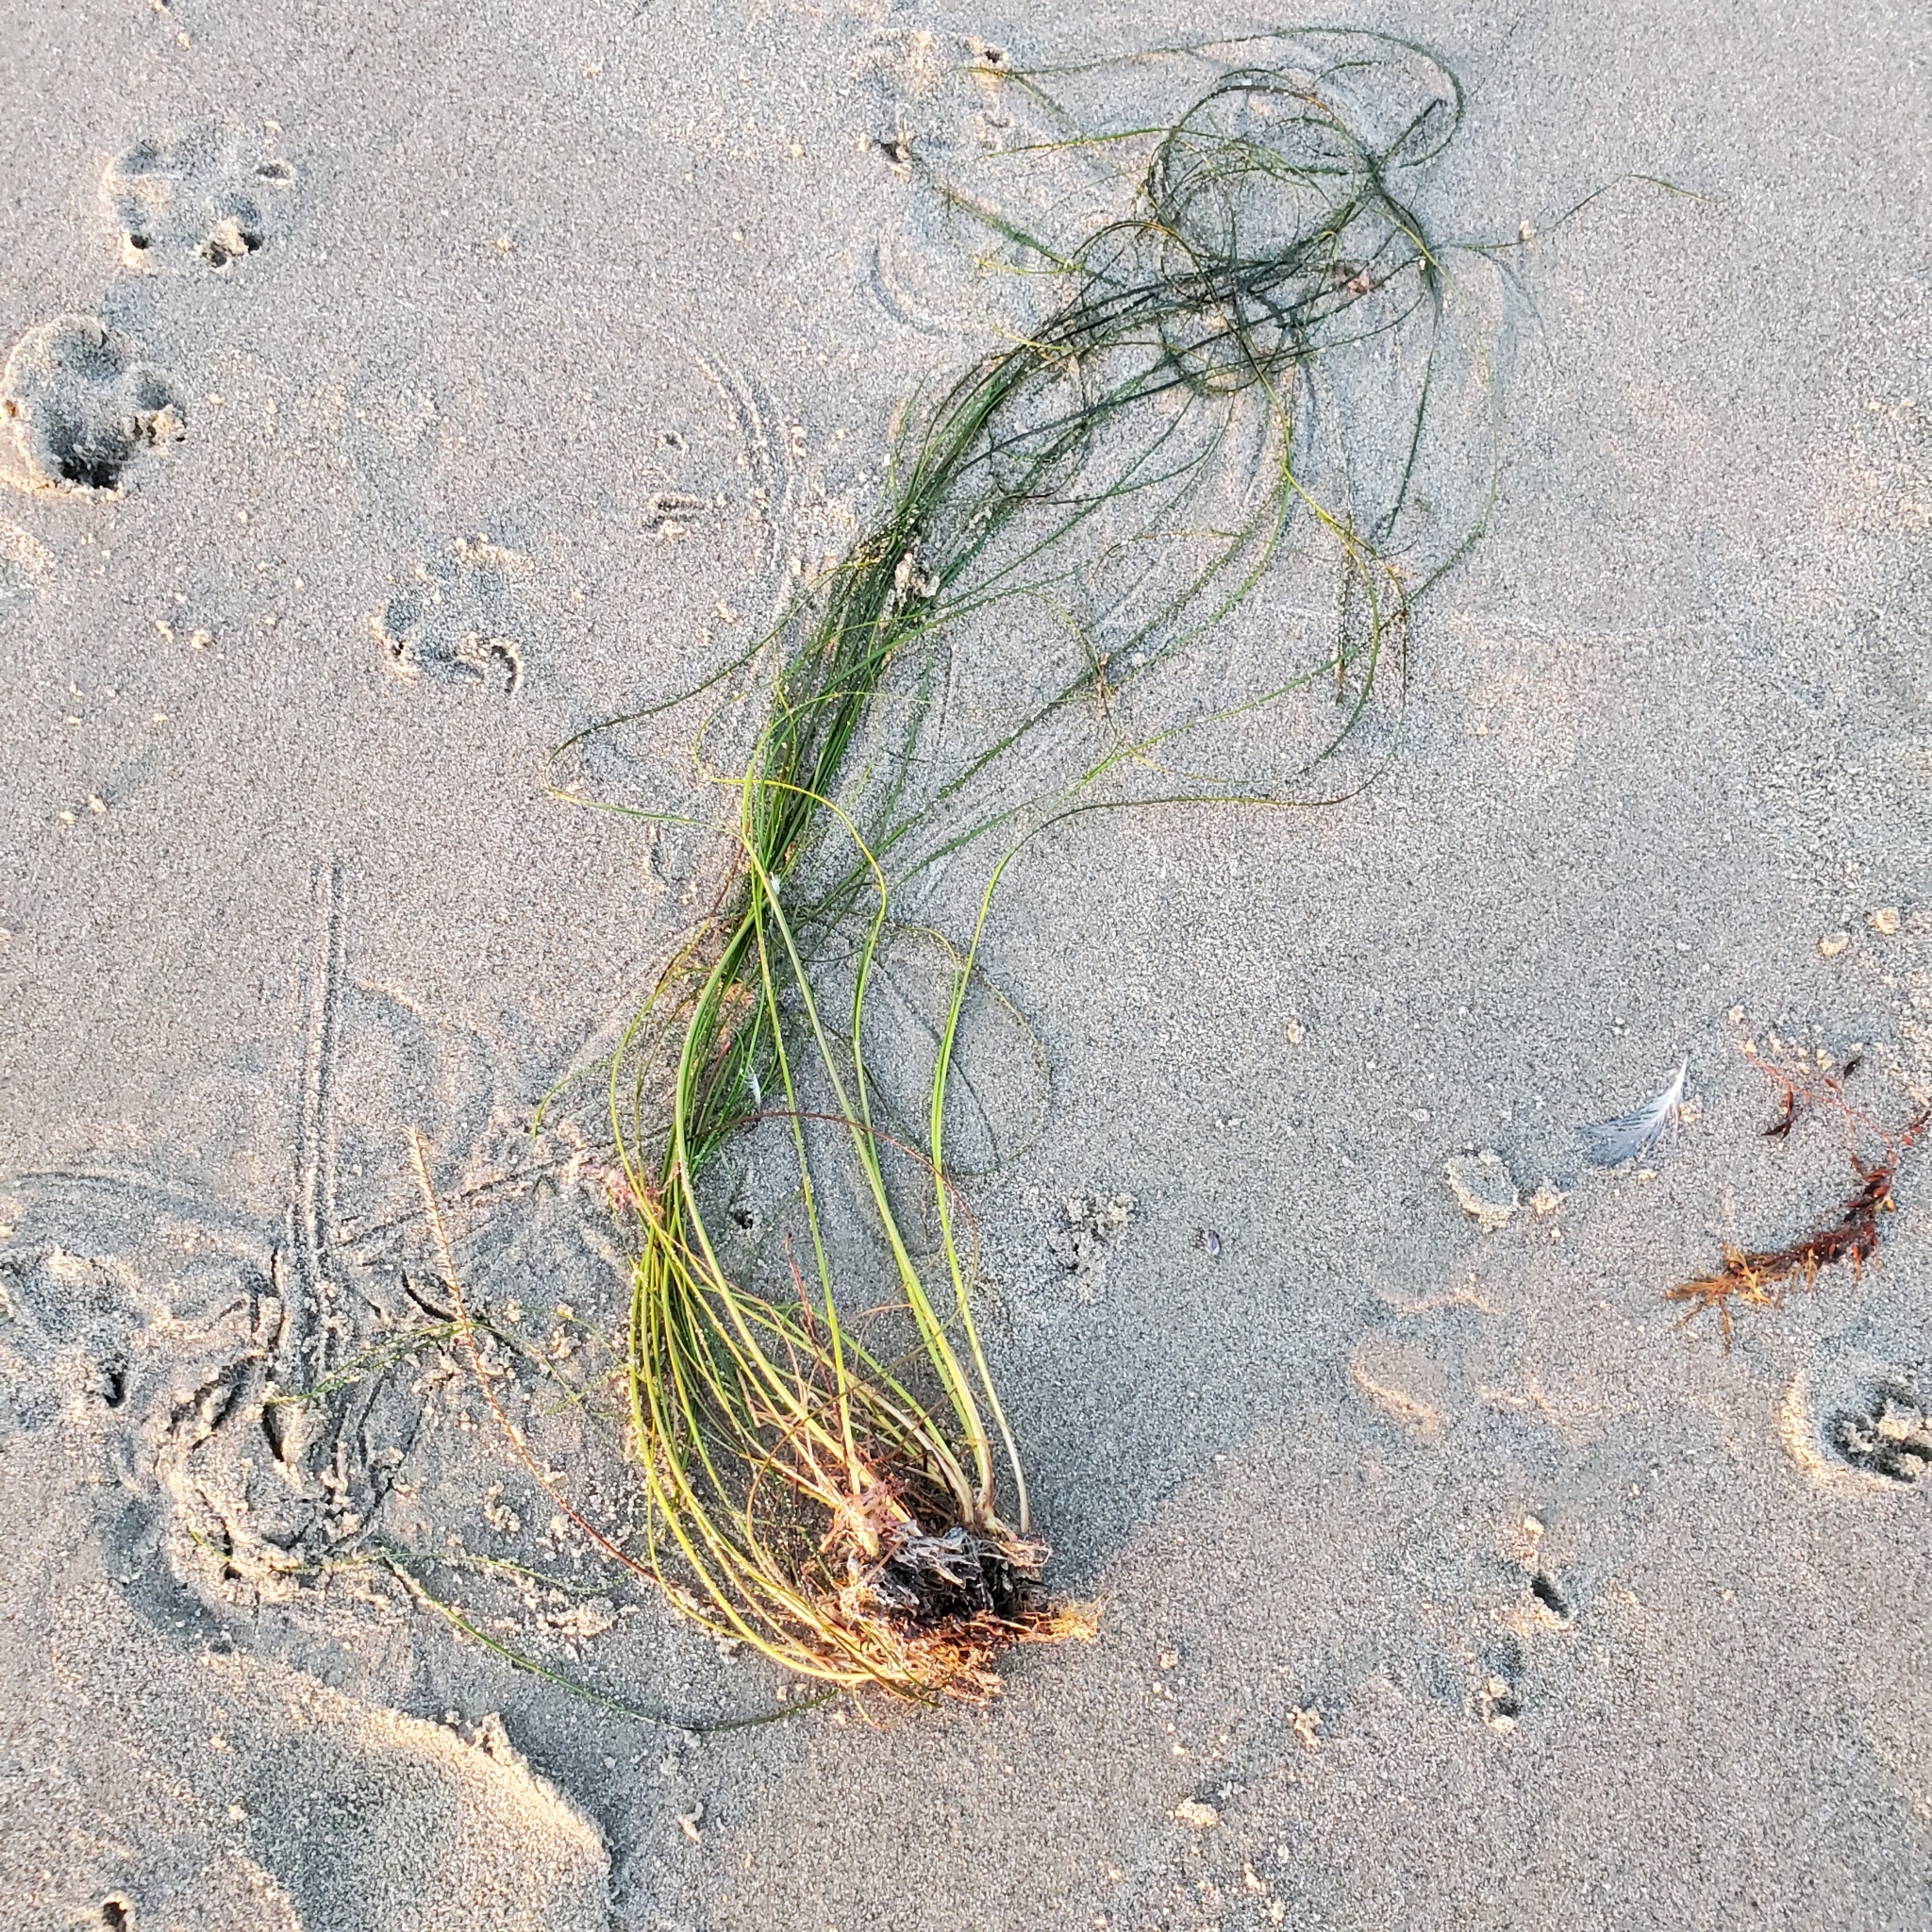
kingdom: Plantae
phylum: Tracheophyta
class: Liliopsida
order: Alismatales
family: Zosteraceae
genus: Phyllospadix
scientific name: Phyllospadix torreyi
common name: Surfgrass
